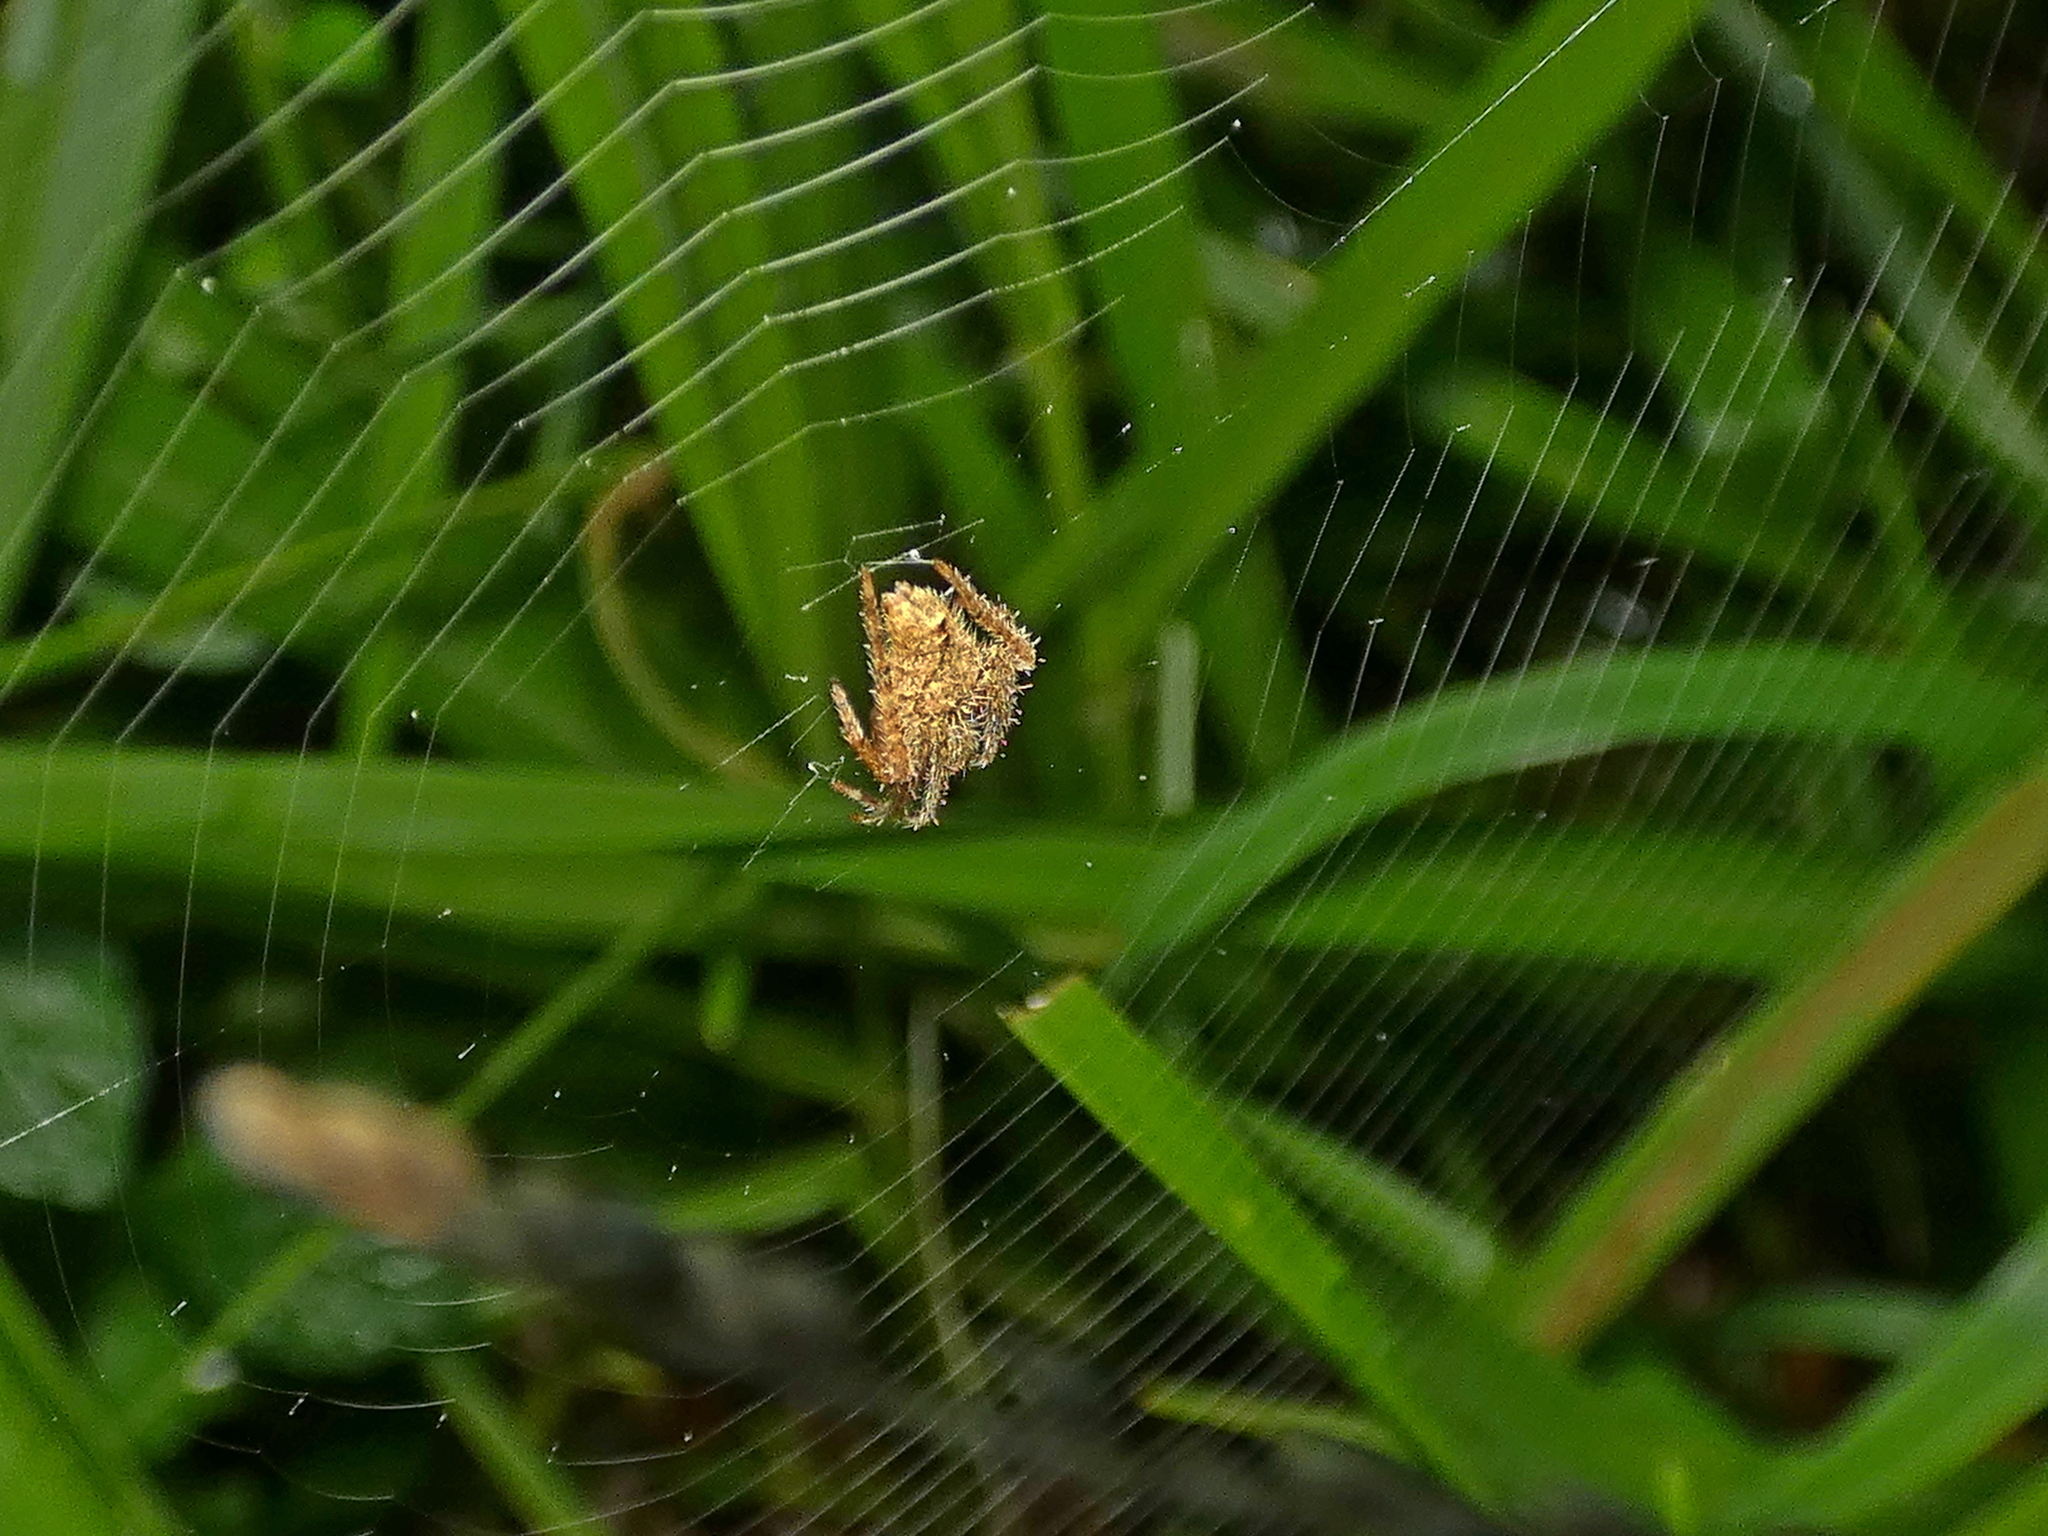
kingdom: Animalia
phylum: Arthropoda
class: Arachnida
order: Araneae
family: Araneidae
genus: Eriophora
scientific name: Eriophora edax
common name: Orb weavers
